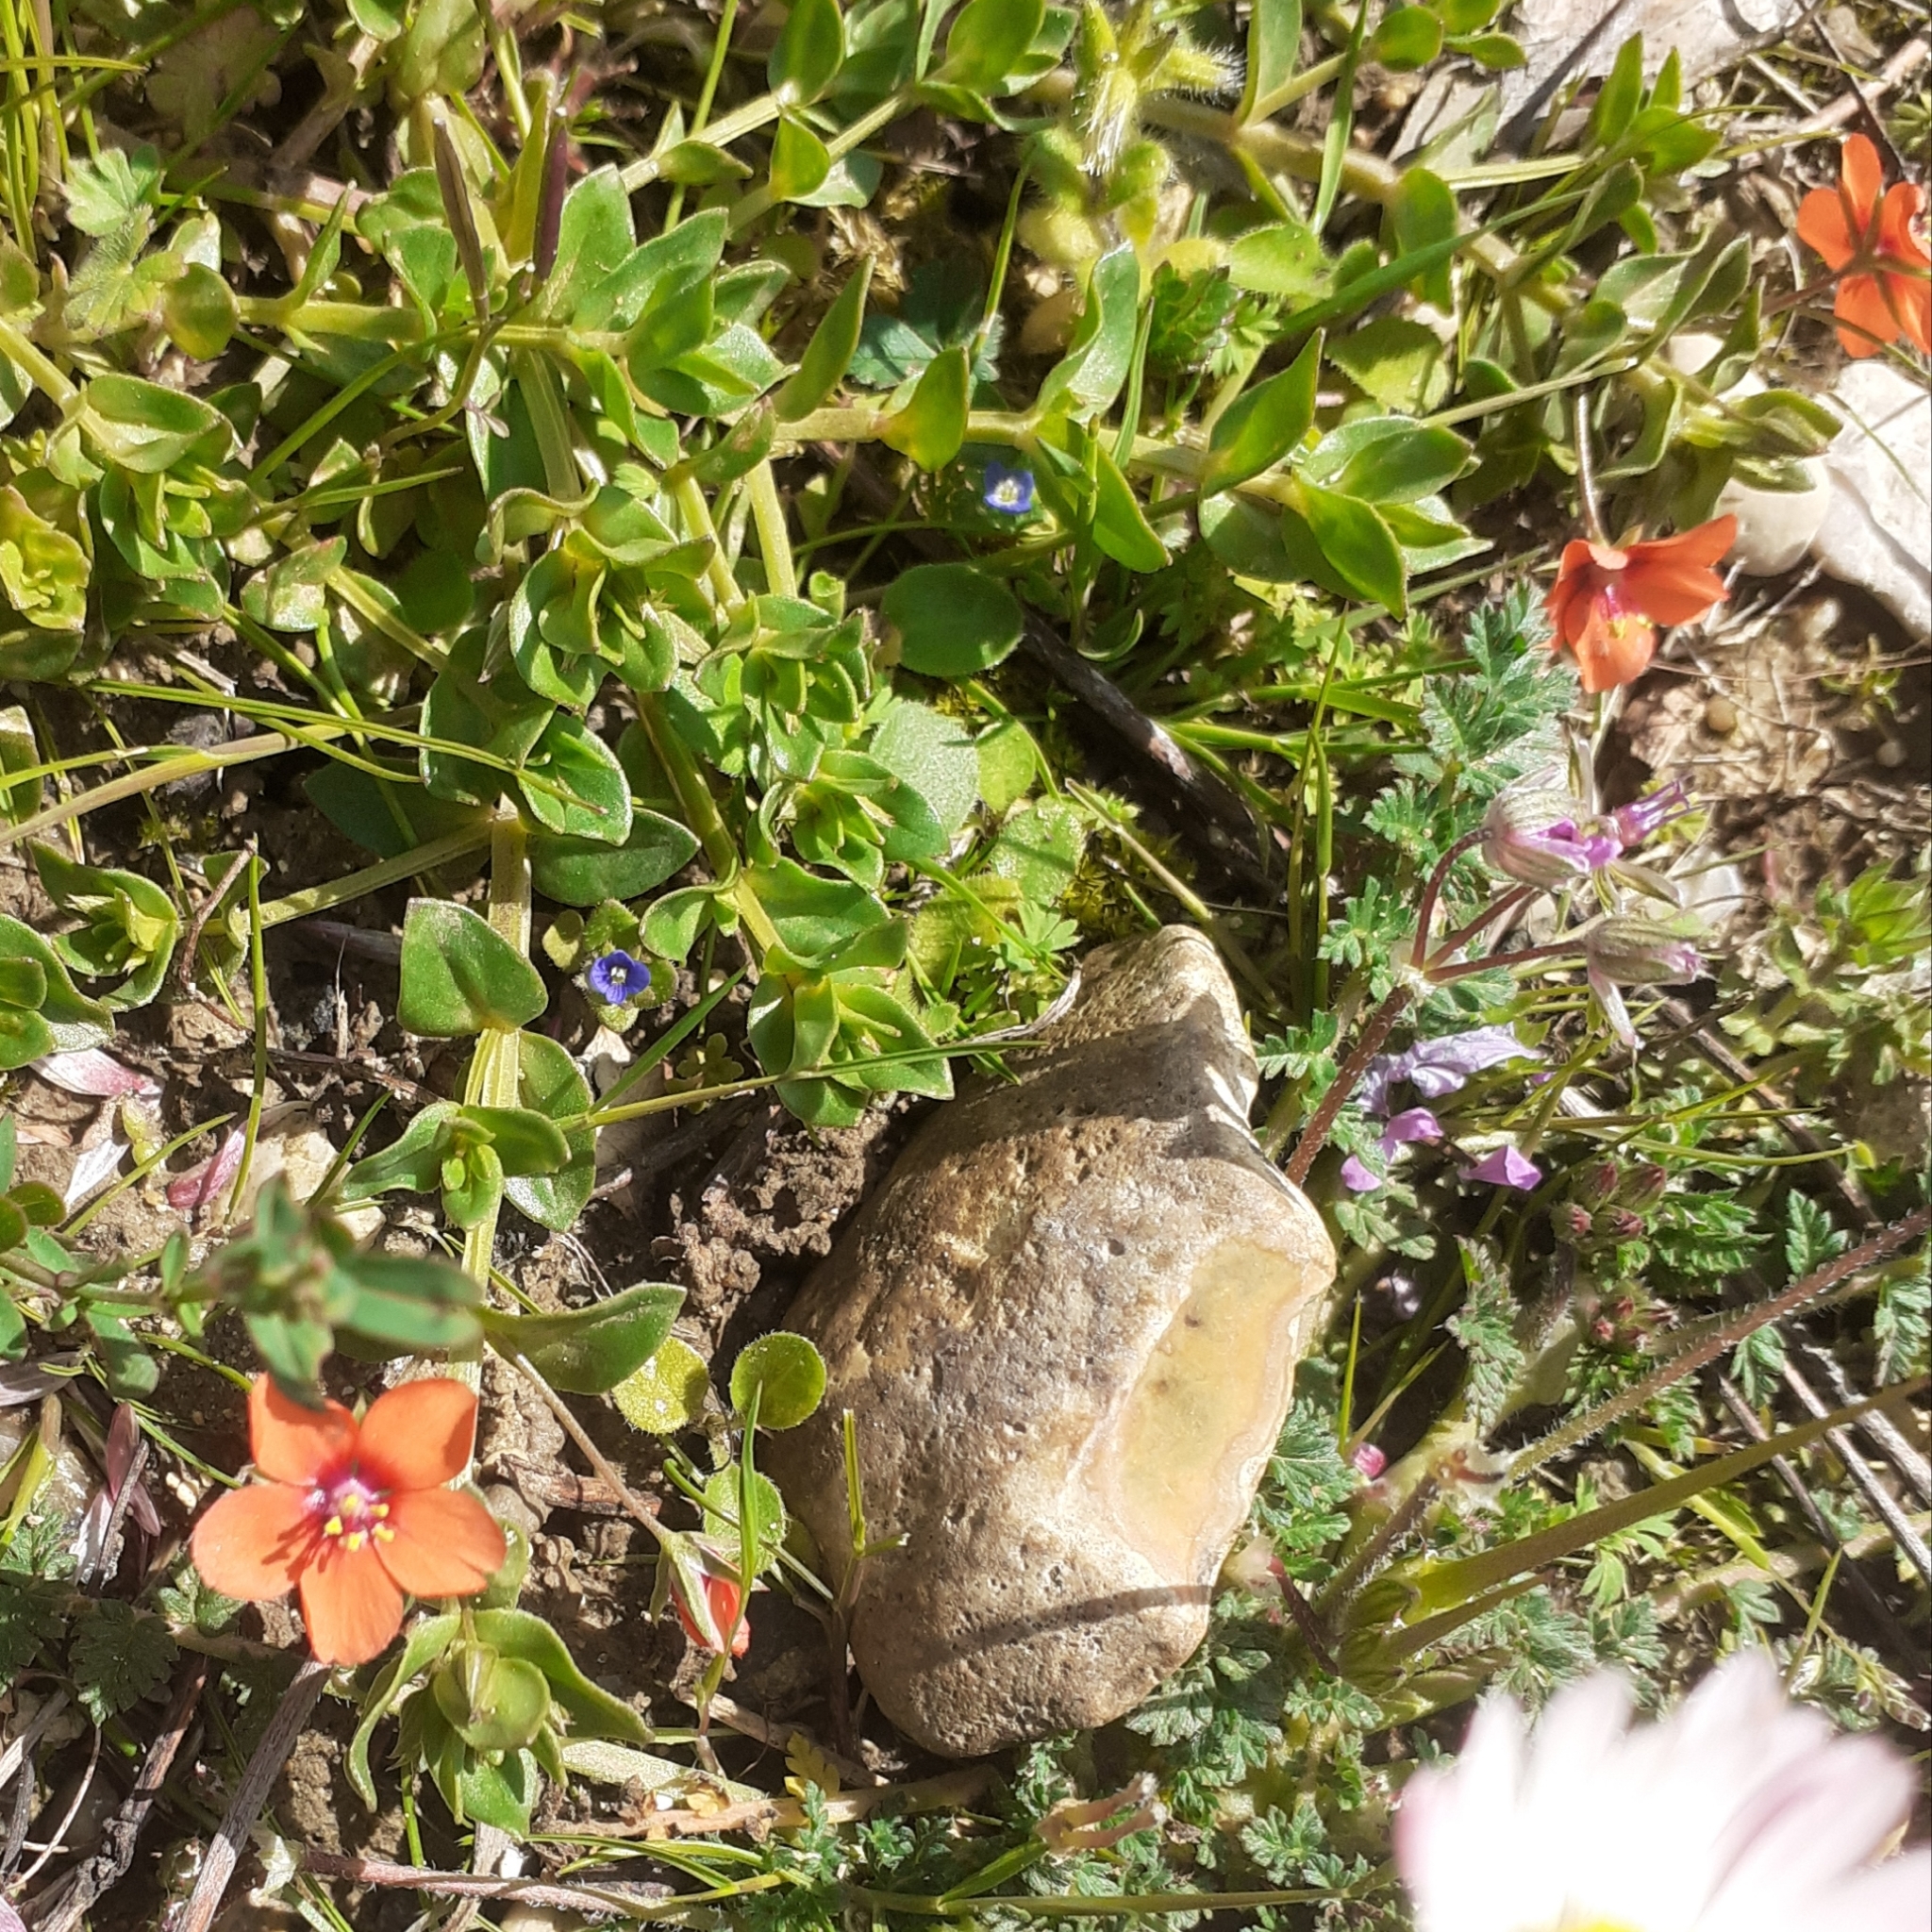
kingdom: Plantae
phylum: Tracheophyta
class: Magnoliopsida
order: Ericales
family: Primulaceae
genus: Lysimachia
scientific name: Lysimachia arvensis
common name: Scarlet pimpernel
